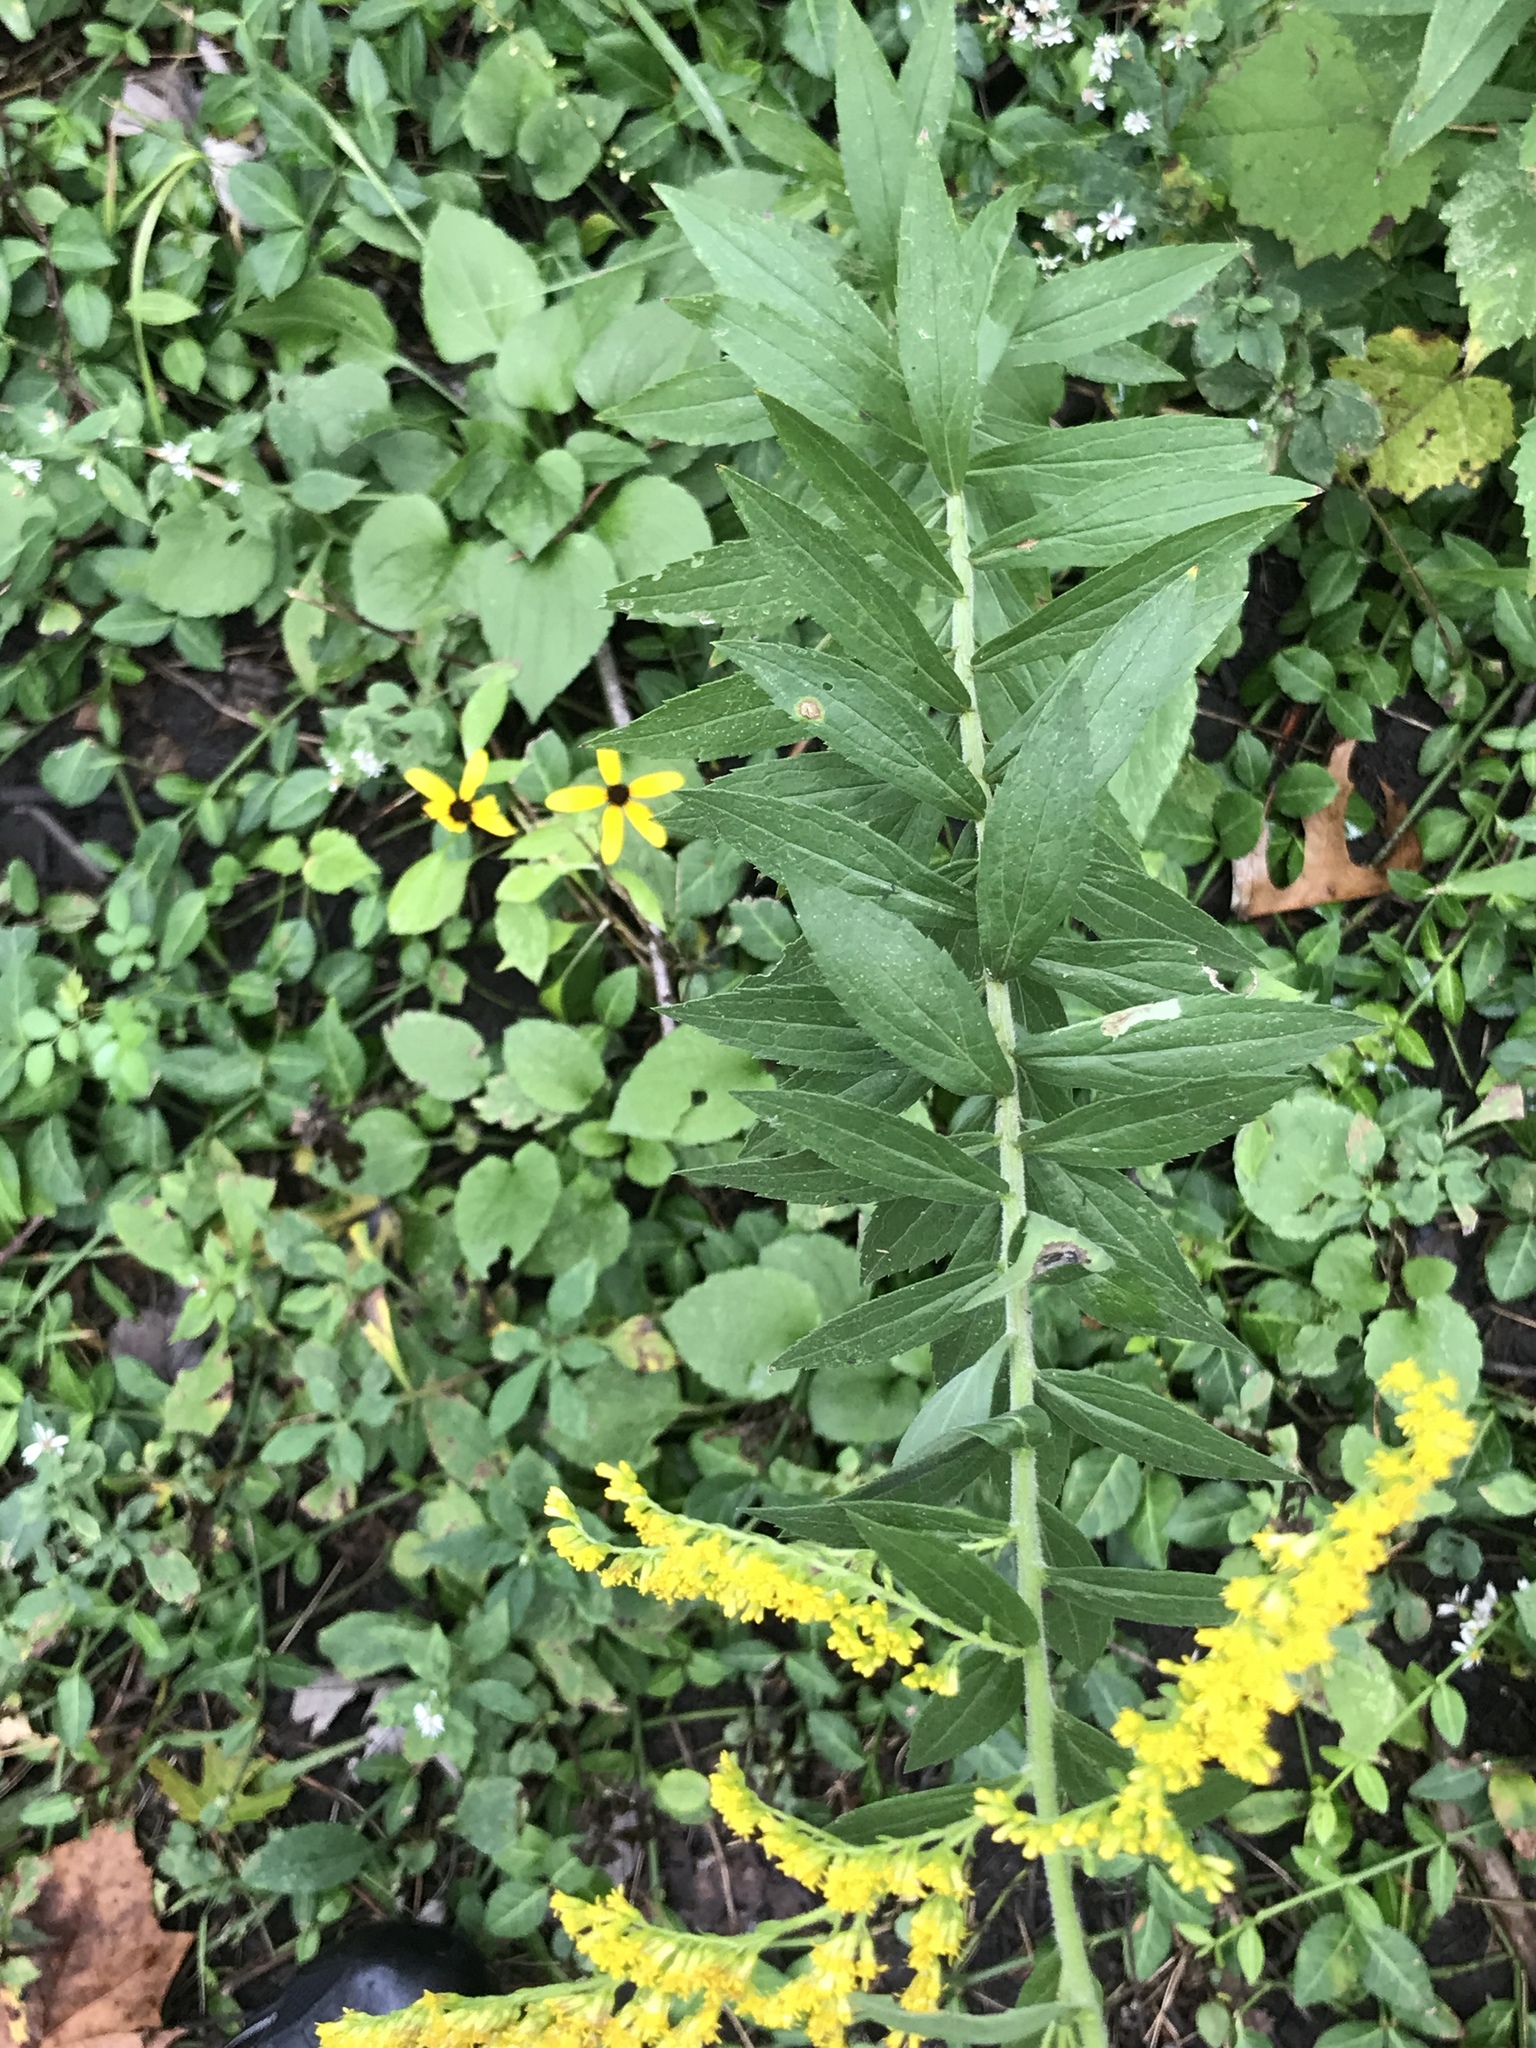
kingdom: Plantae
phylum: Tracheophyta
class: Magnoliopsida
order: Asterales
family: Asteraceae
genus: Solidago
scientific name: Solidago canadensis
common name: Canada goldenrod
